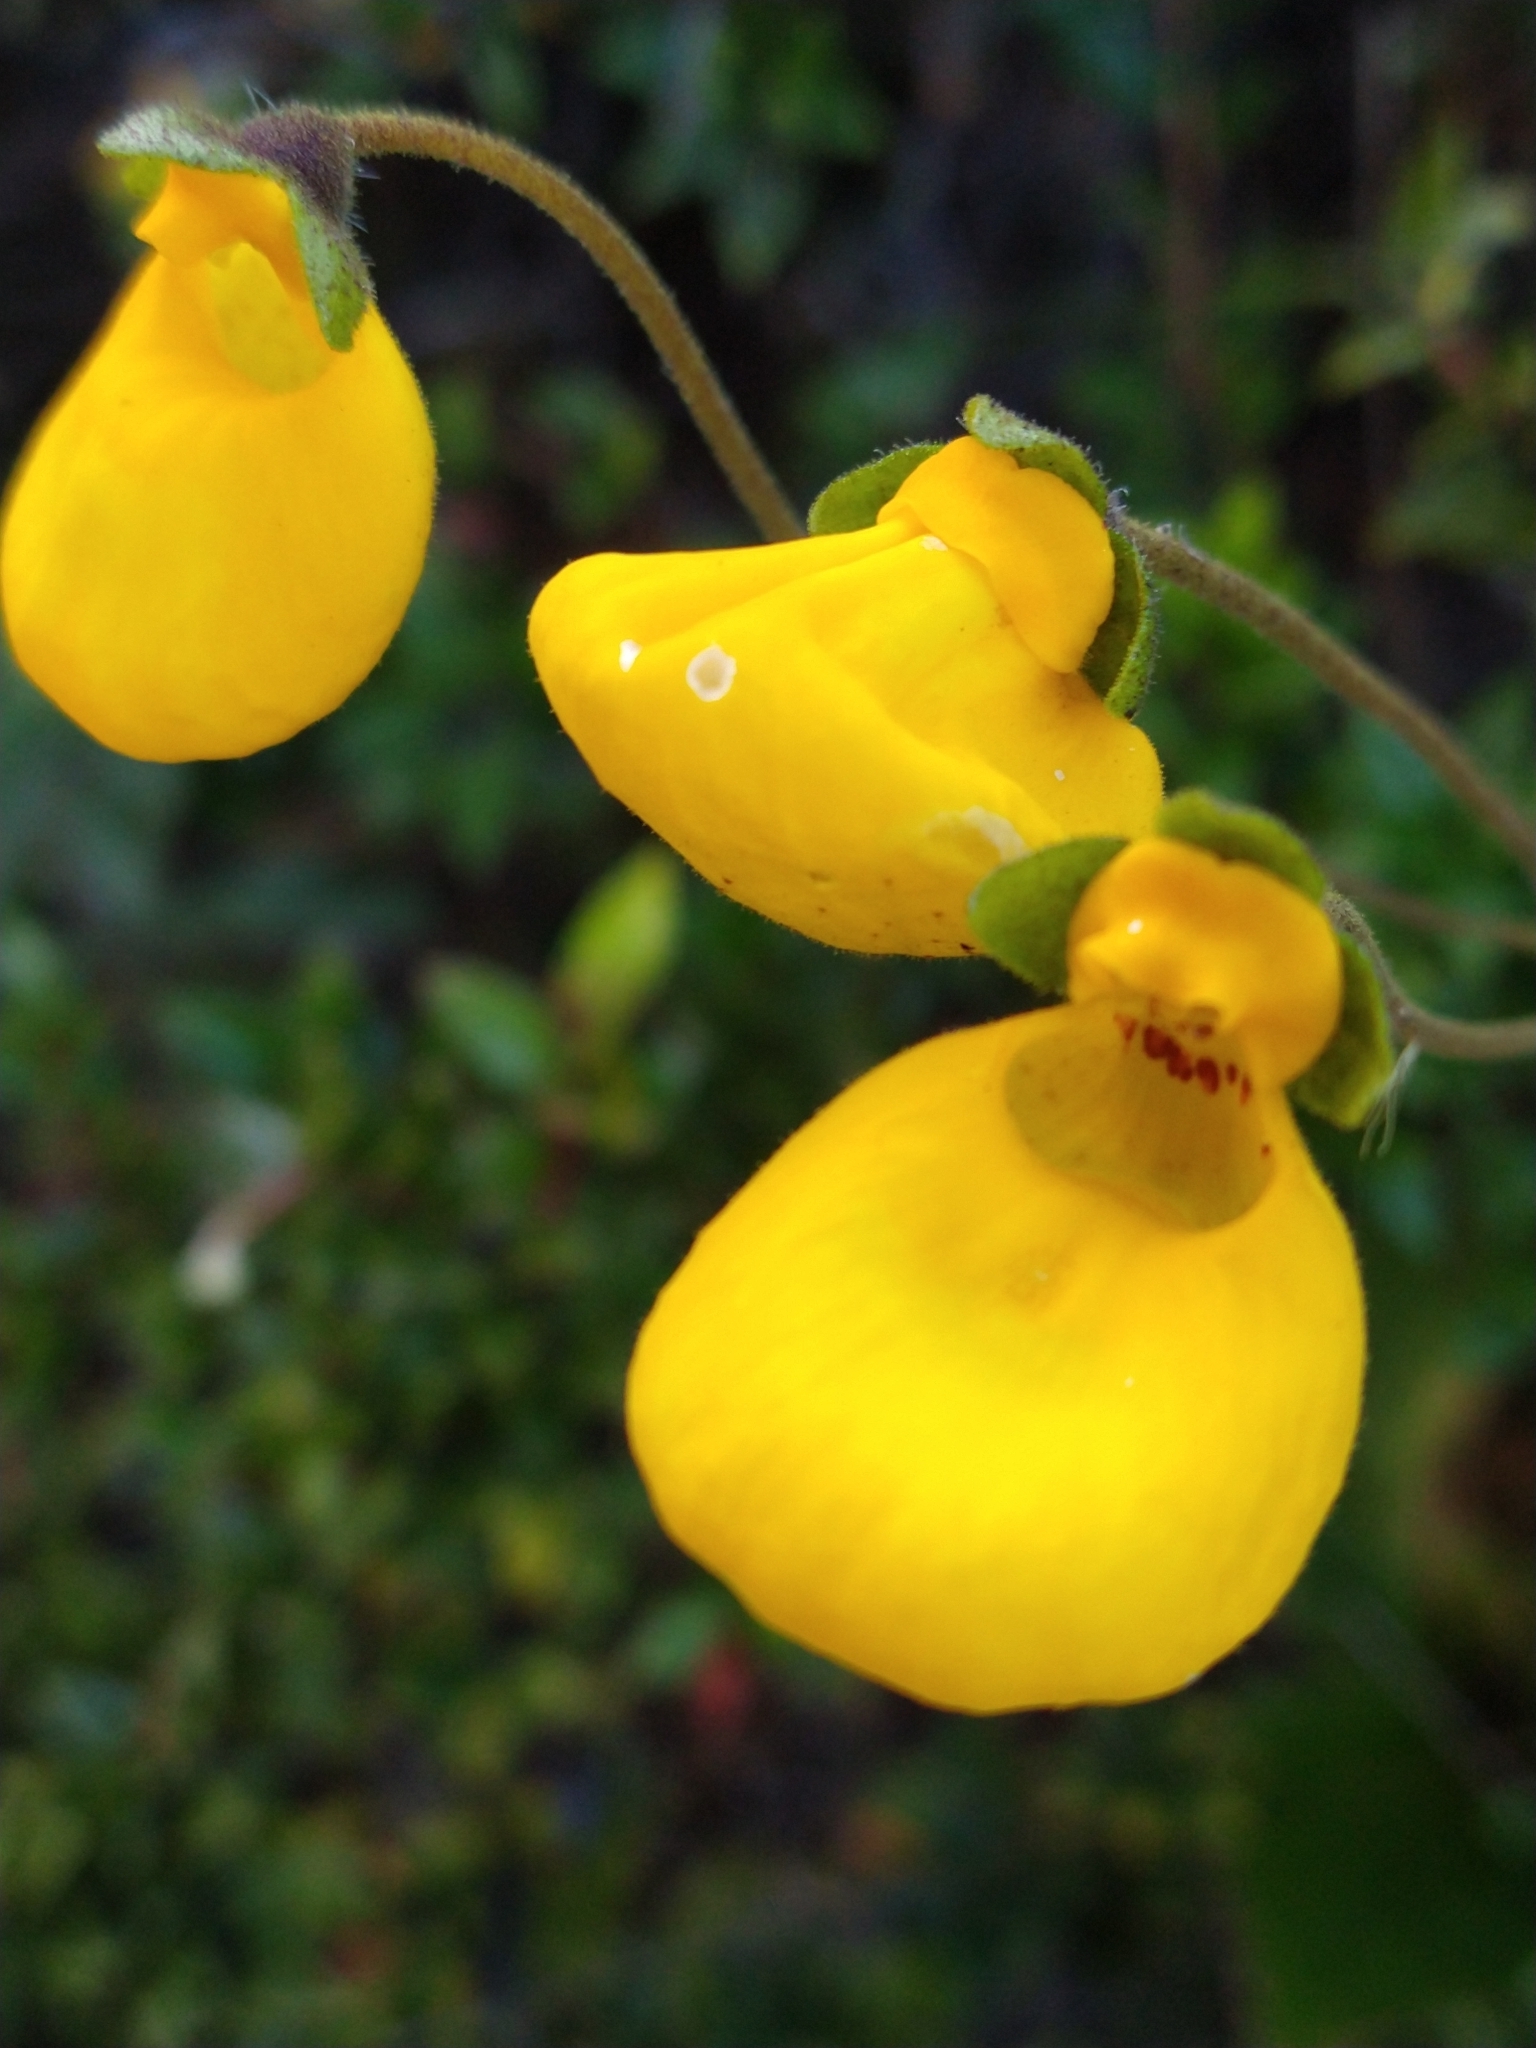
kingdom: Plantae
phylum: Tracheophyta
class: Magnoliopsida
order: Lamiales
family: Calceolariaceae
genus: Calceolaria
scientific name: Calceolaria biflora
